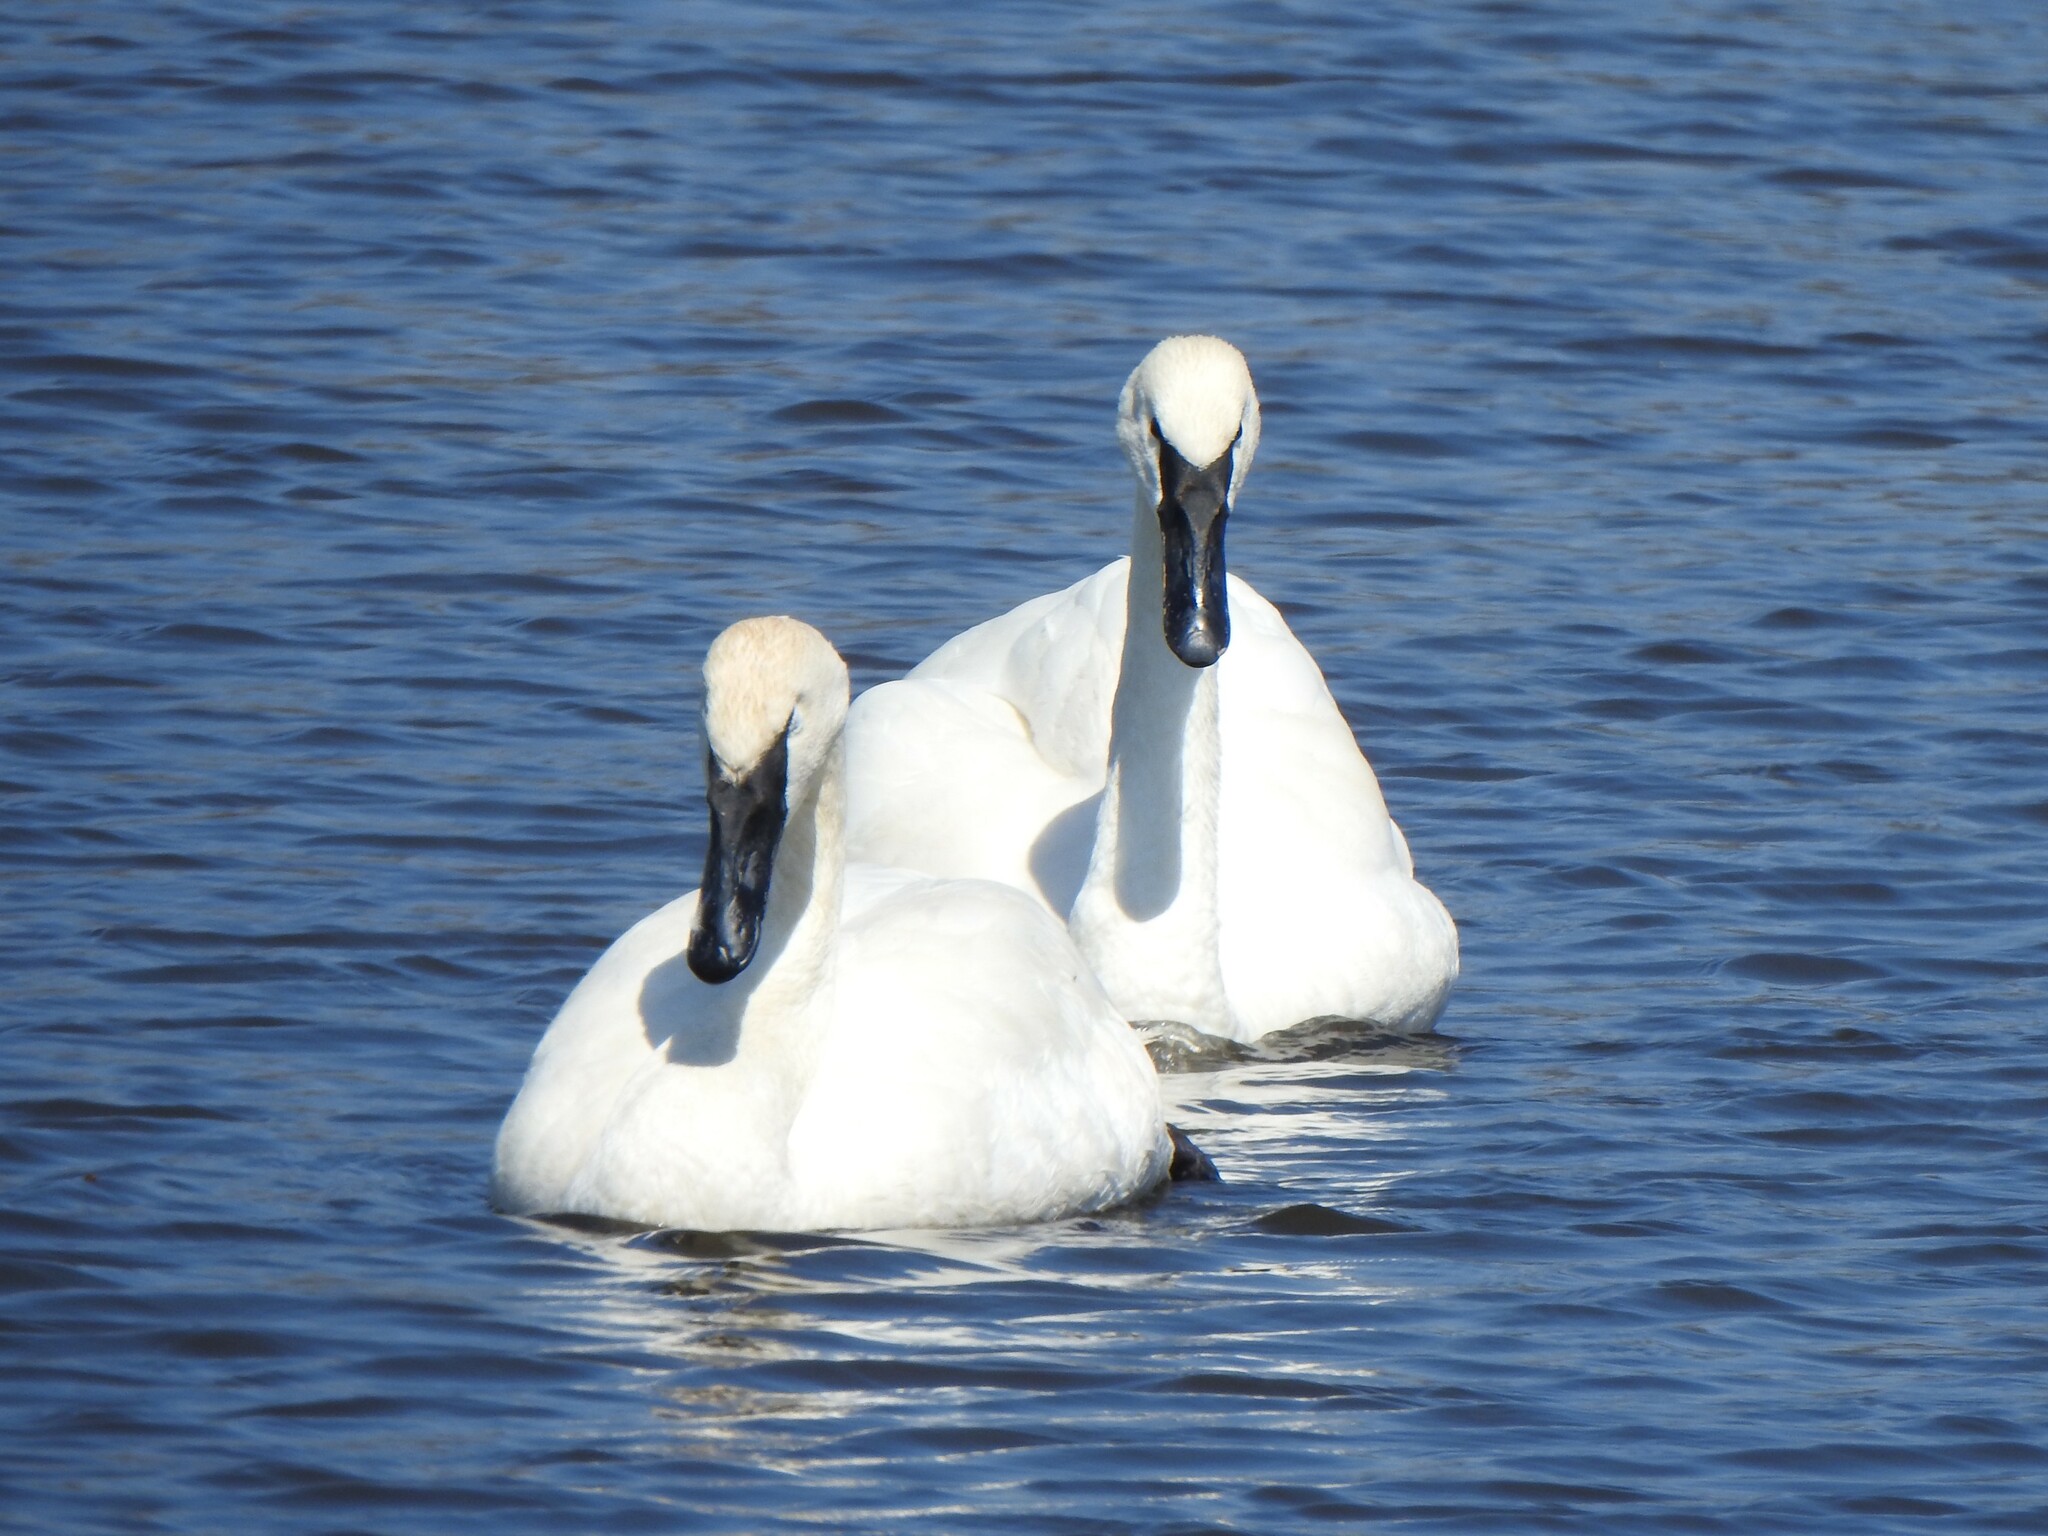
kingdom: Animalia
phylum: Chordata
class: Aves
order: Anseriformes
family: Anatidae
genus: Cygnus
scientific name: Cygnus buccinator
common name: Trumpeter swan
